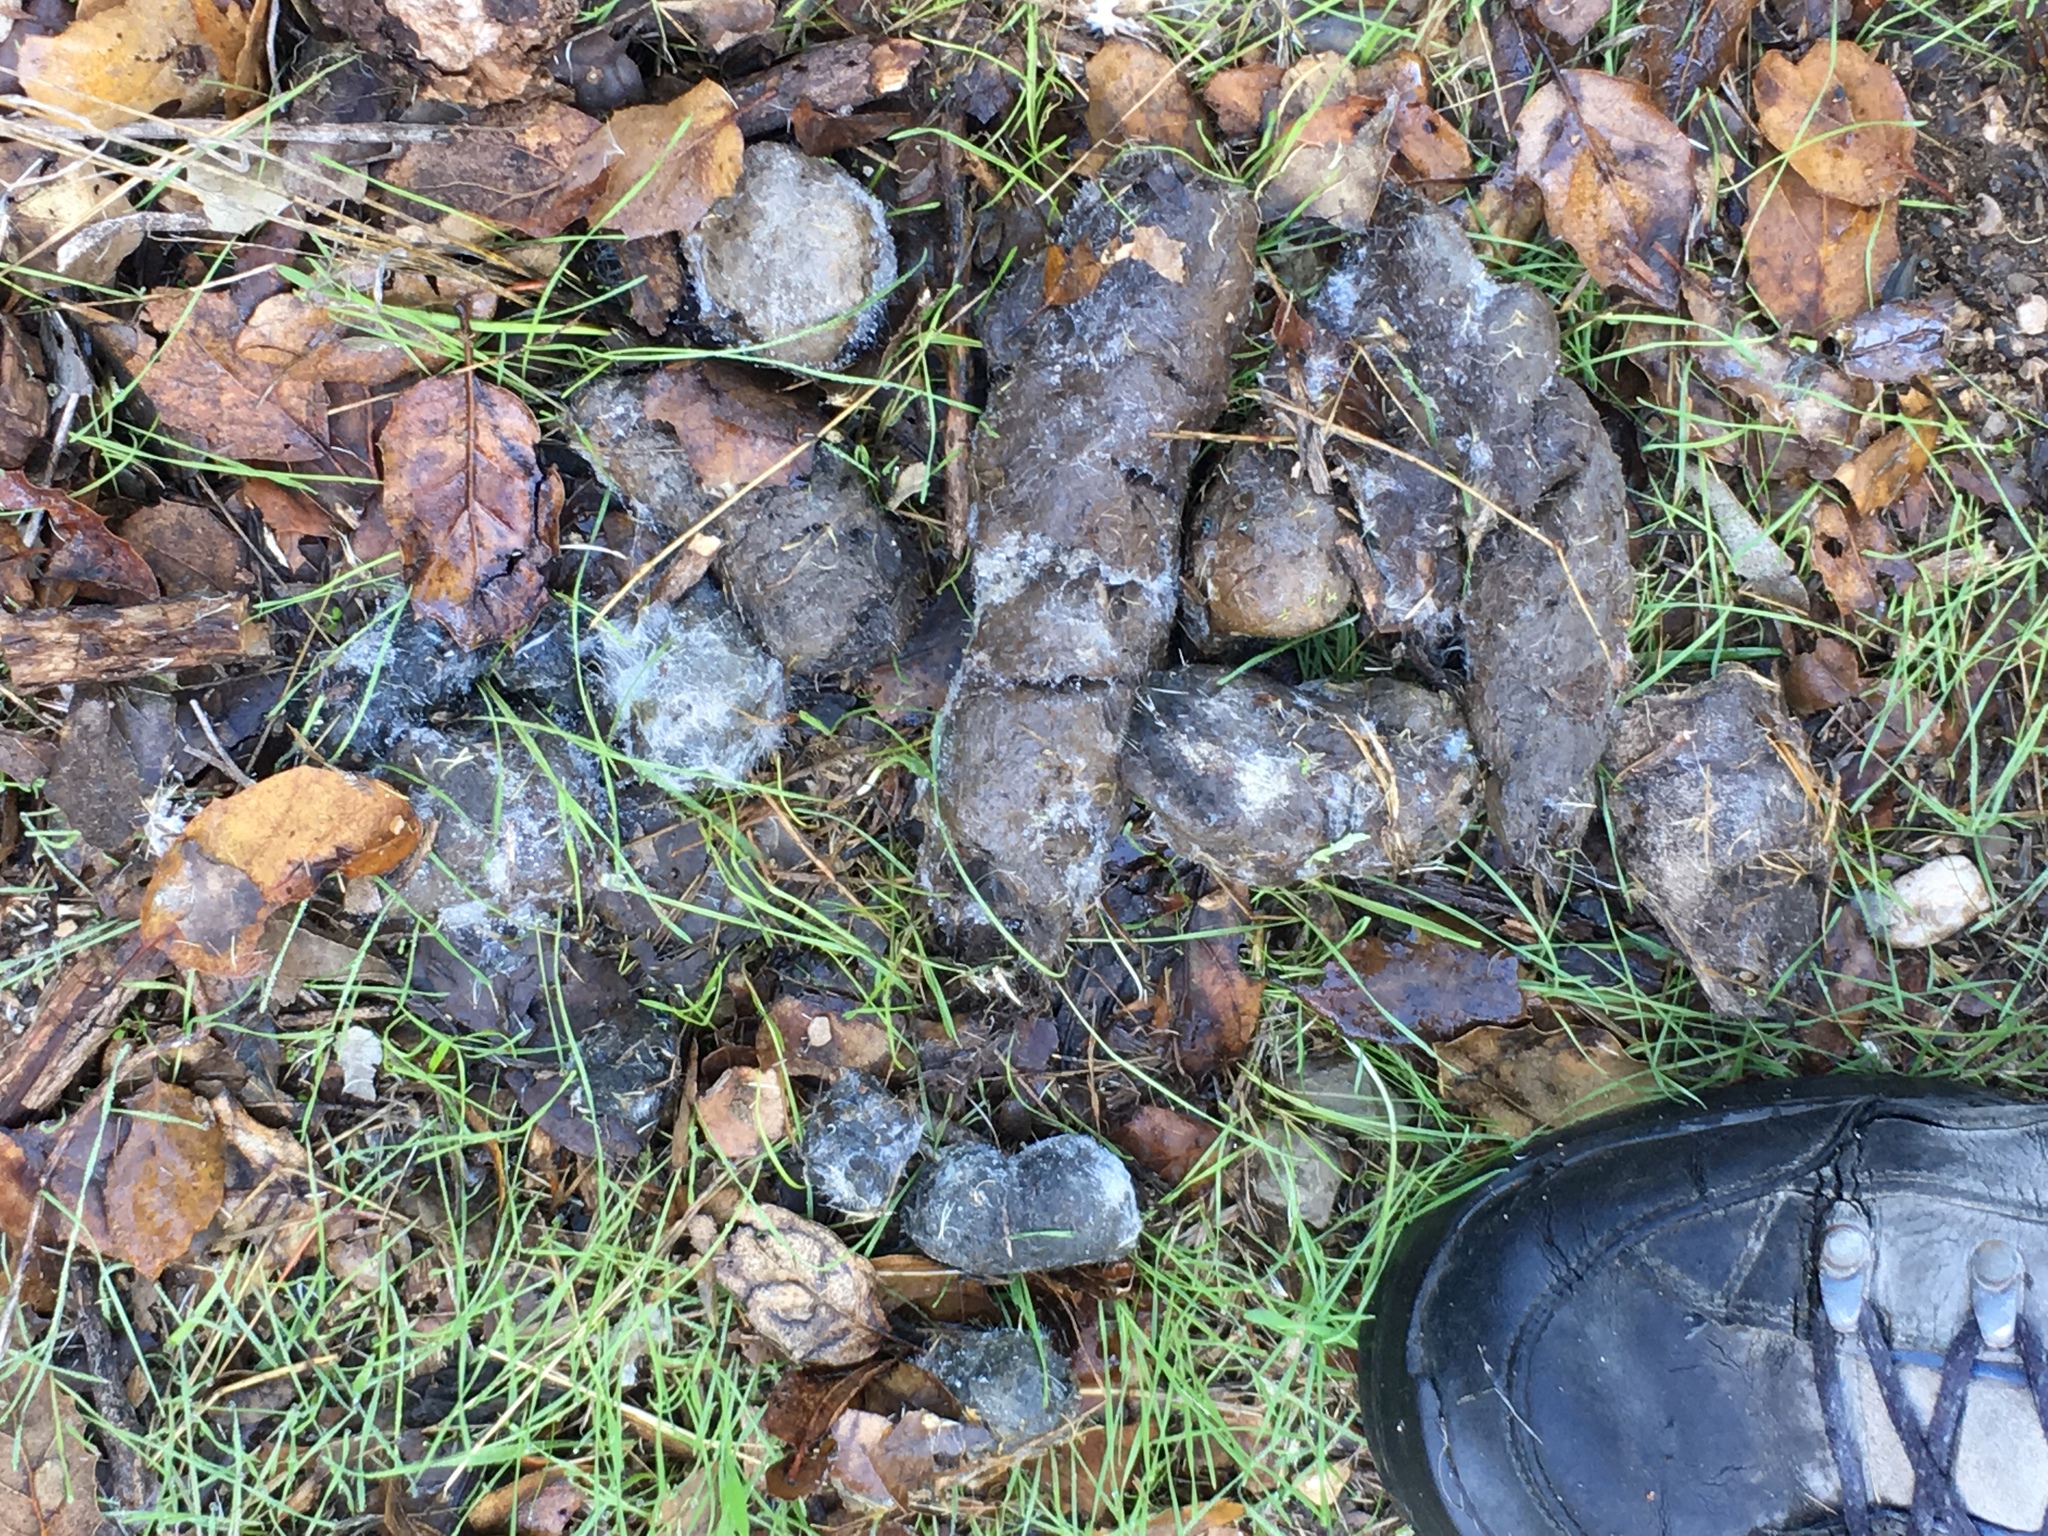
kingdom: Animalia
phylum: Chordata
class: Mammalia
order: Carnivora
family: Felidae
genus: Lynx
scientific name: Lynx rufus
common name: Bobcat
